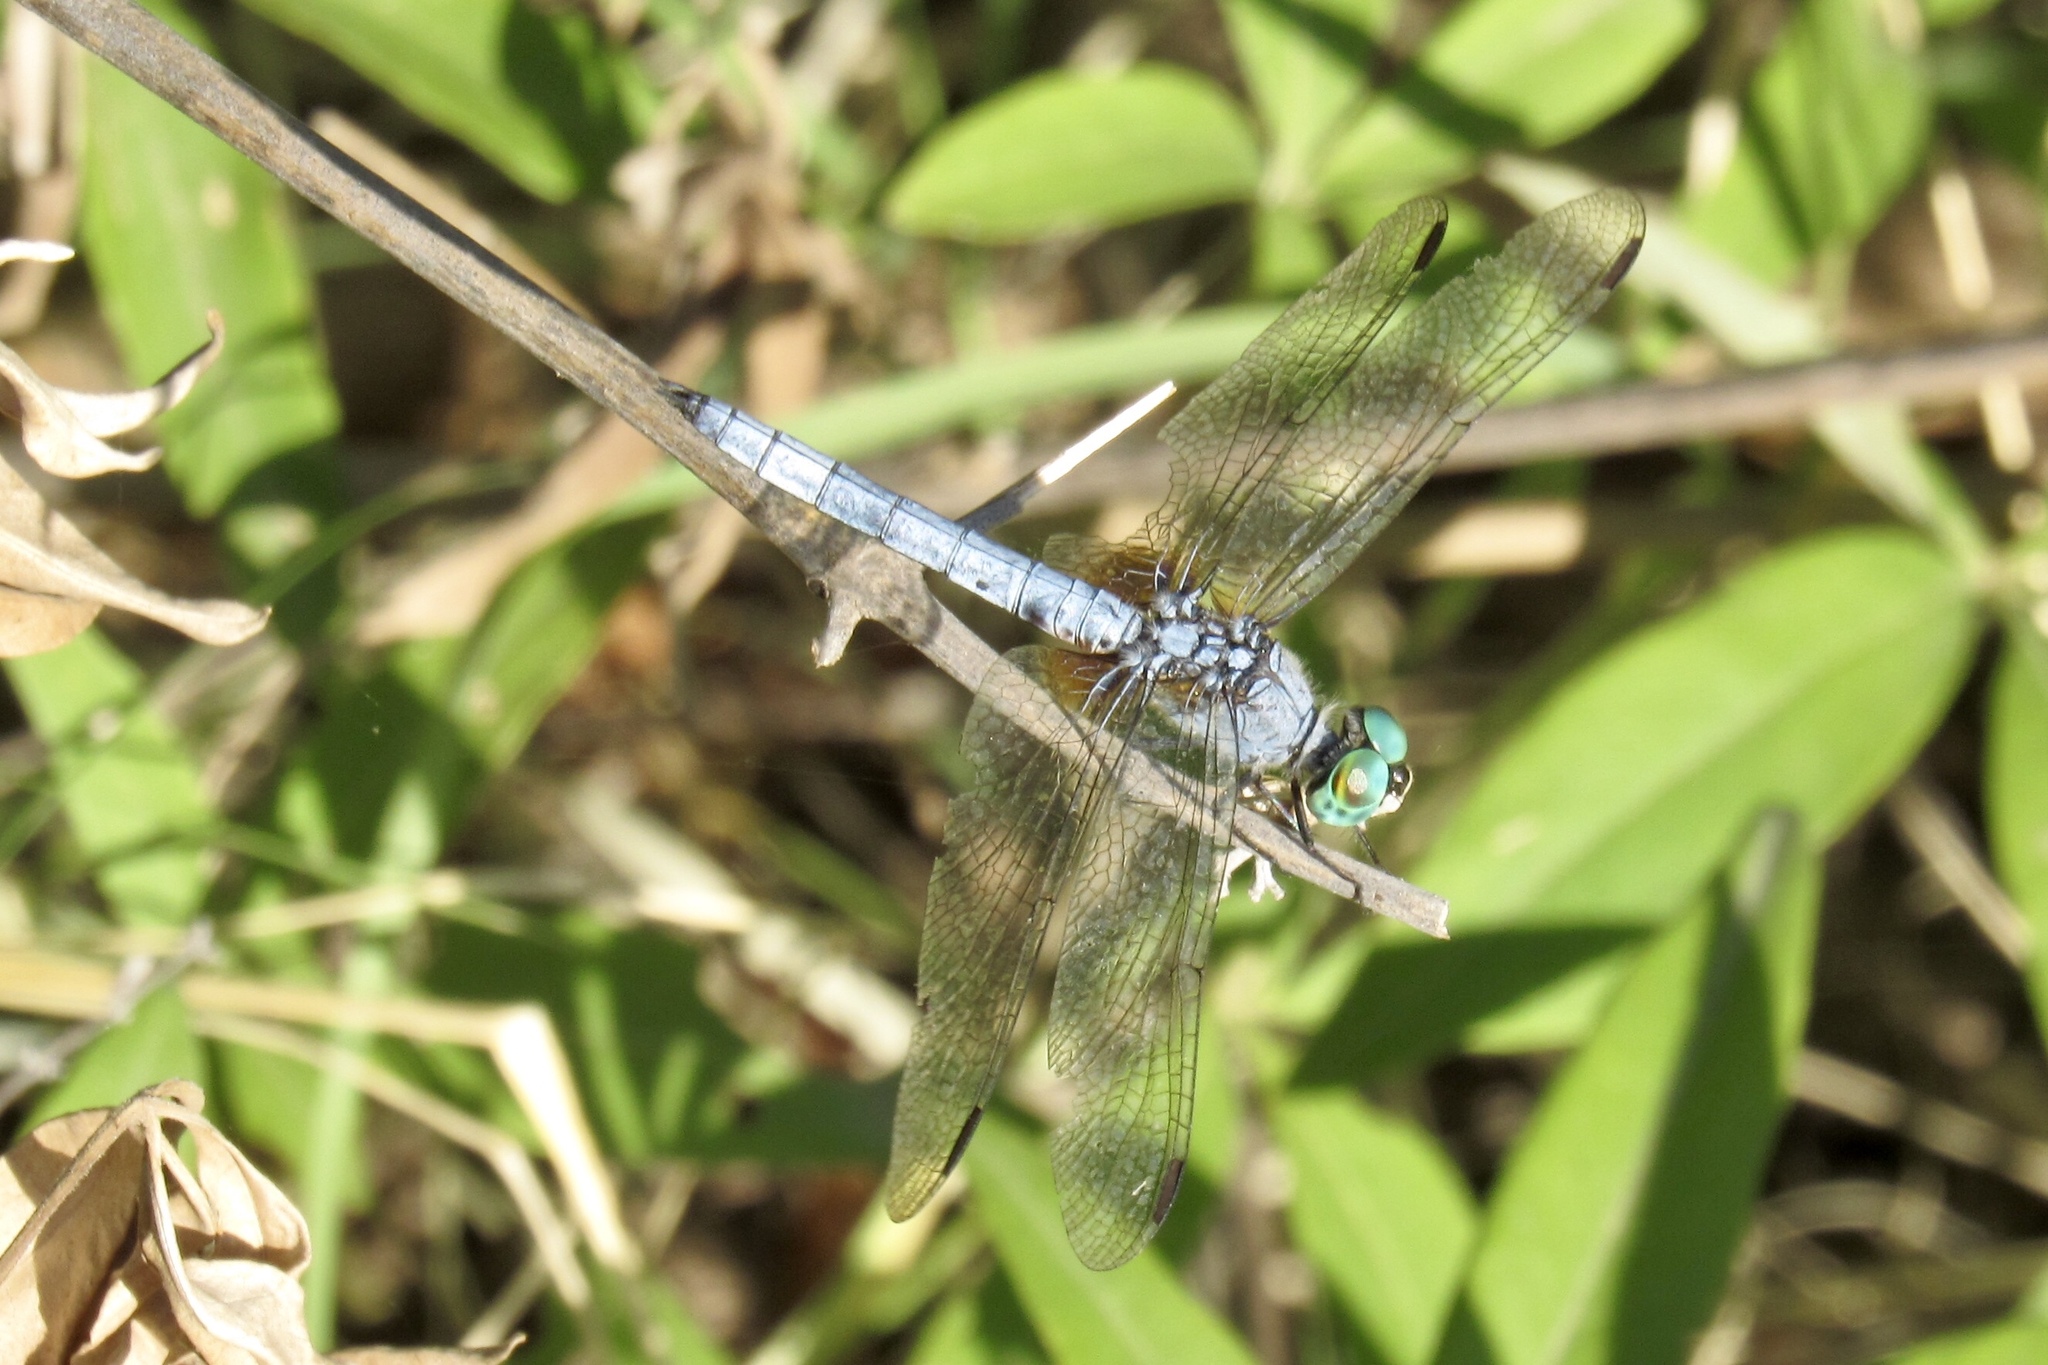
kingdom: Animalia
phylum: Arthropoda
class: Insecta
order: Odonata
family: Libellulidae
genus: Pachydiplax
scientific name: Pachydiplax longipennis
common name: Blue dasher
